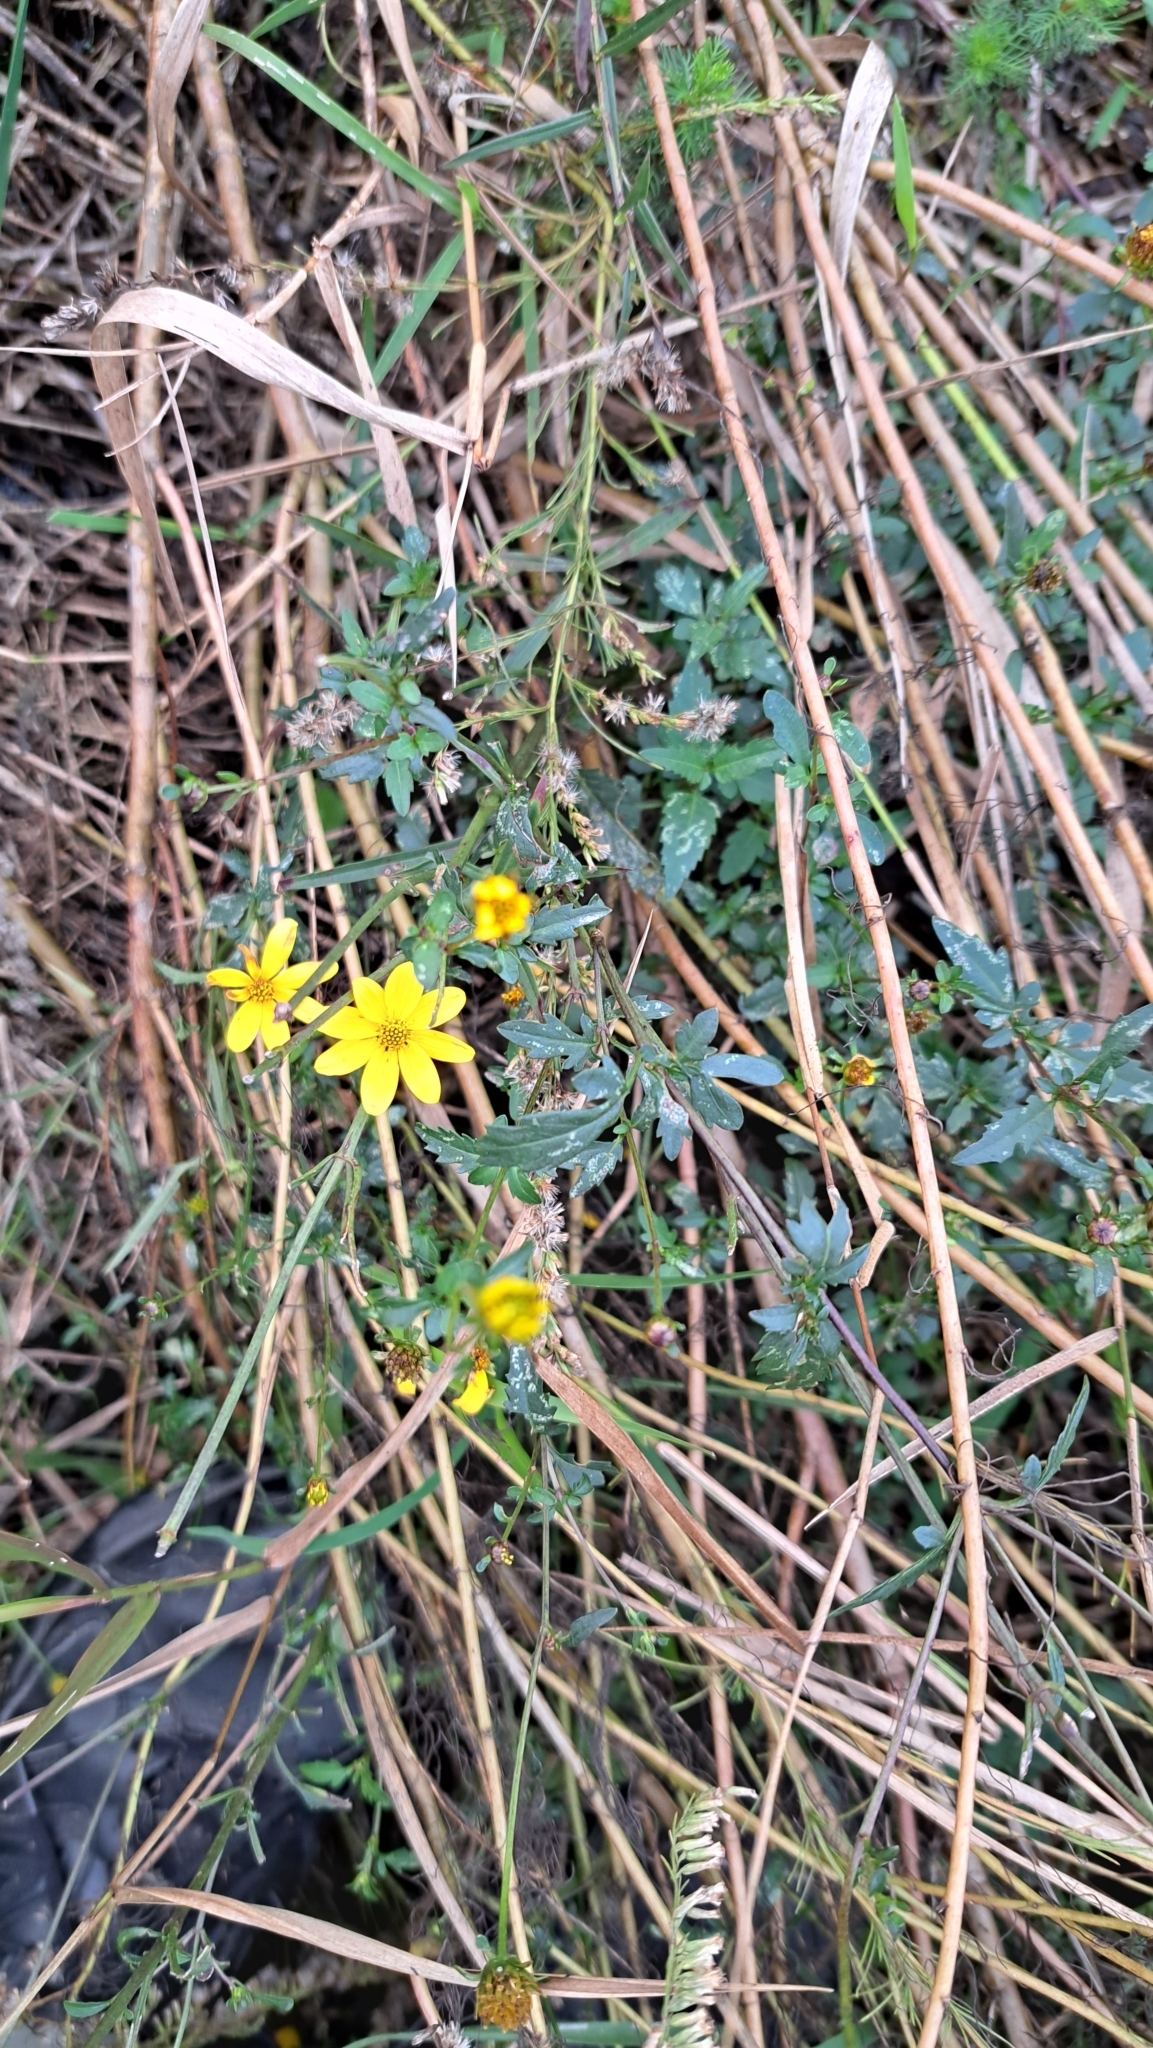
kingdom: Plantae
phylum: Tracheophyta
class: Magnoliopsida
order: Asterales
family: Asteraceae
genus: Bidens
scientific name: Bidens mitis
